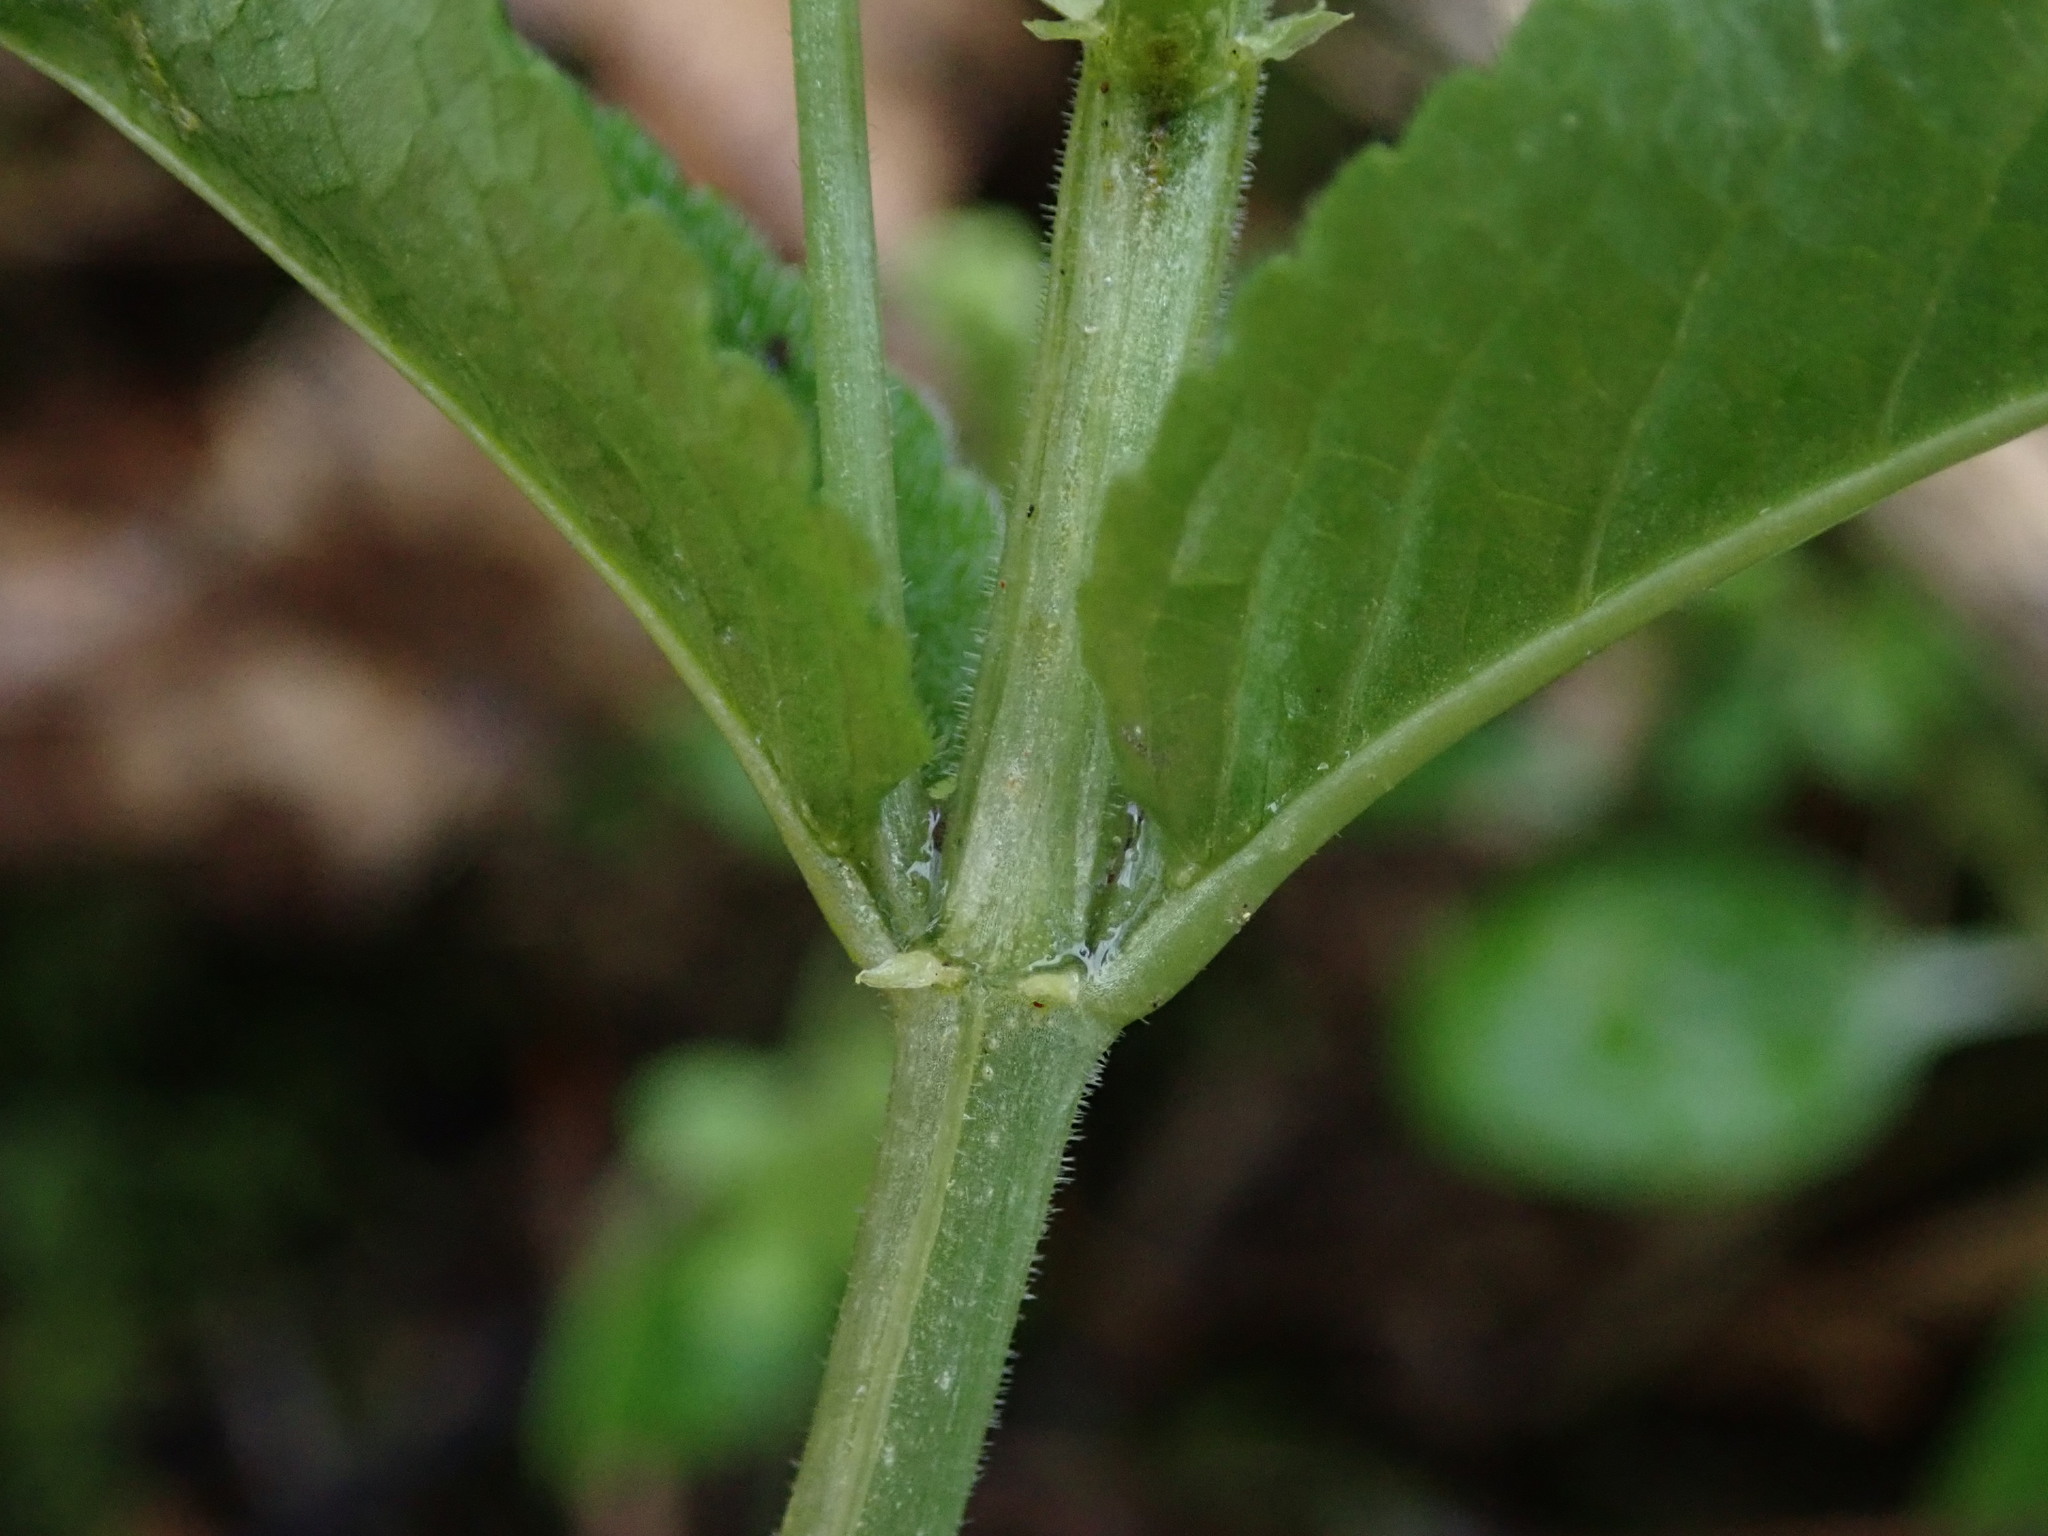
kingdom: Plantae
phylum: Tracheophyta
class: Magnoliopsida
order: Malpighiales
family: Euphorbiaceae
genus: Mercurialis
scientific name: Mercurialis perennis
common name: Dog mercury
